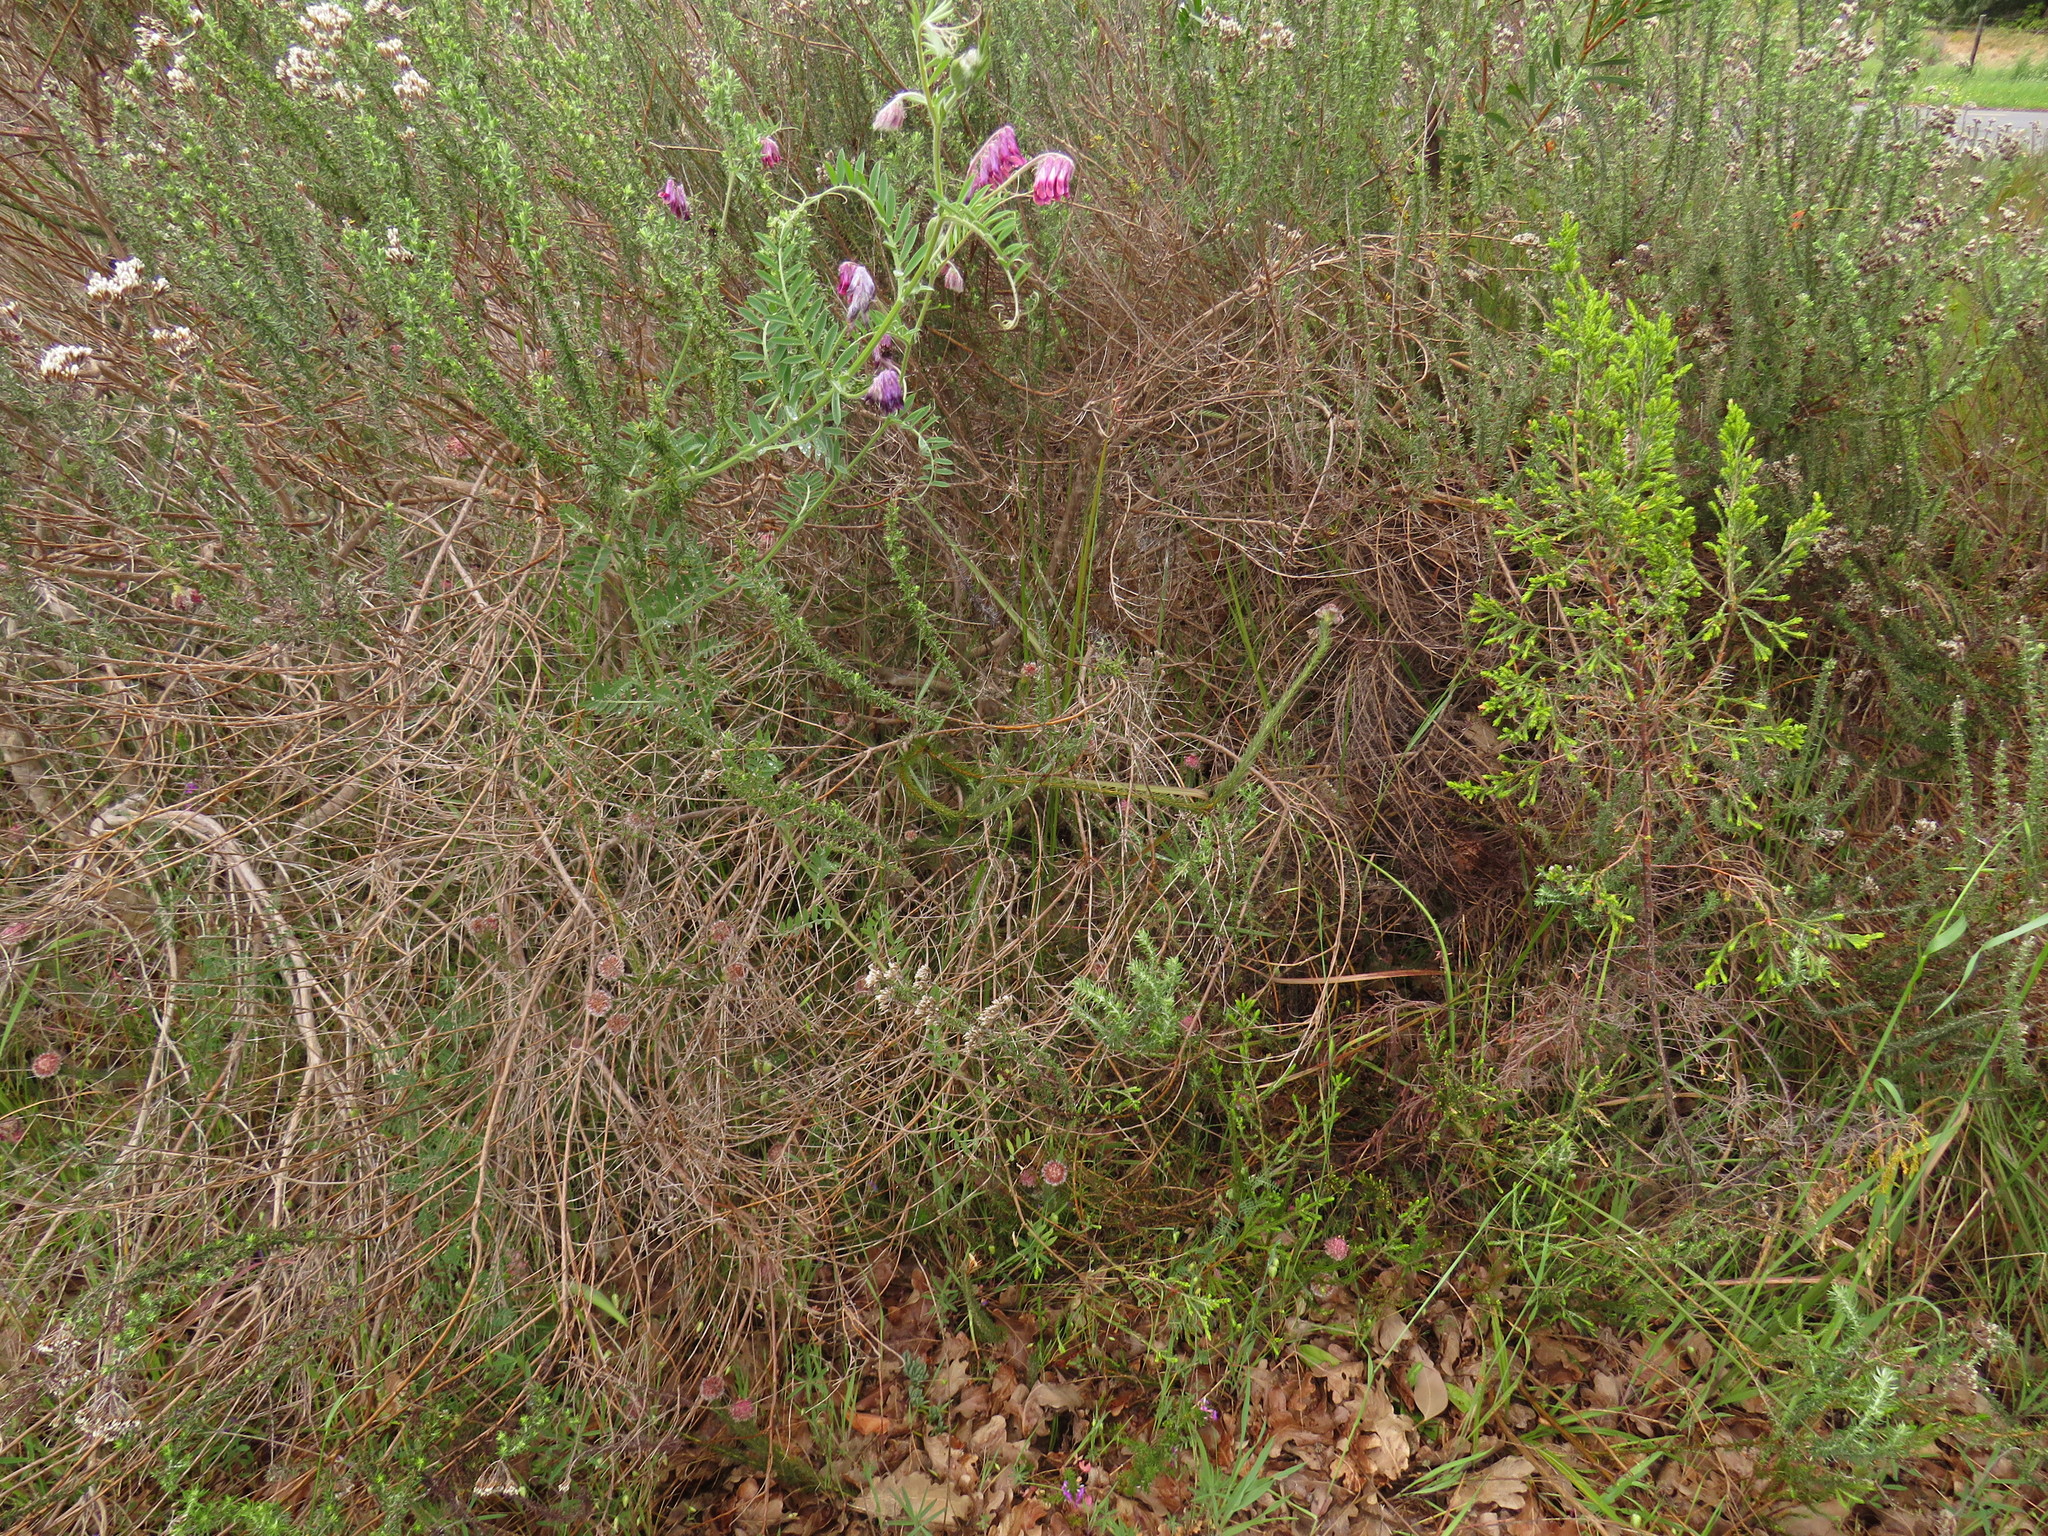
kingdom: Plantae
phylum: Tracheophyta
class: Magnoliopsida
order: Proteales
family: Proteaceae
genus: Serruria
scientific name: Serruria trilopha
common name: Trident spiderhead
